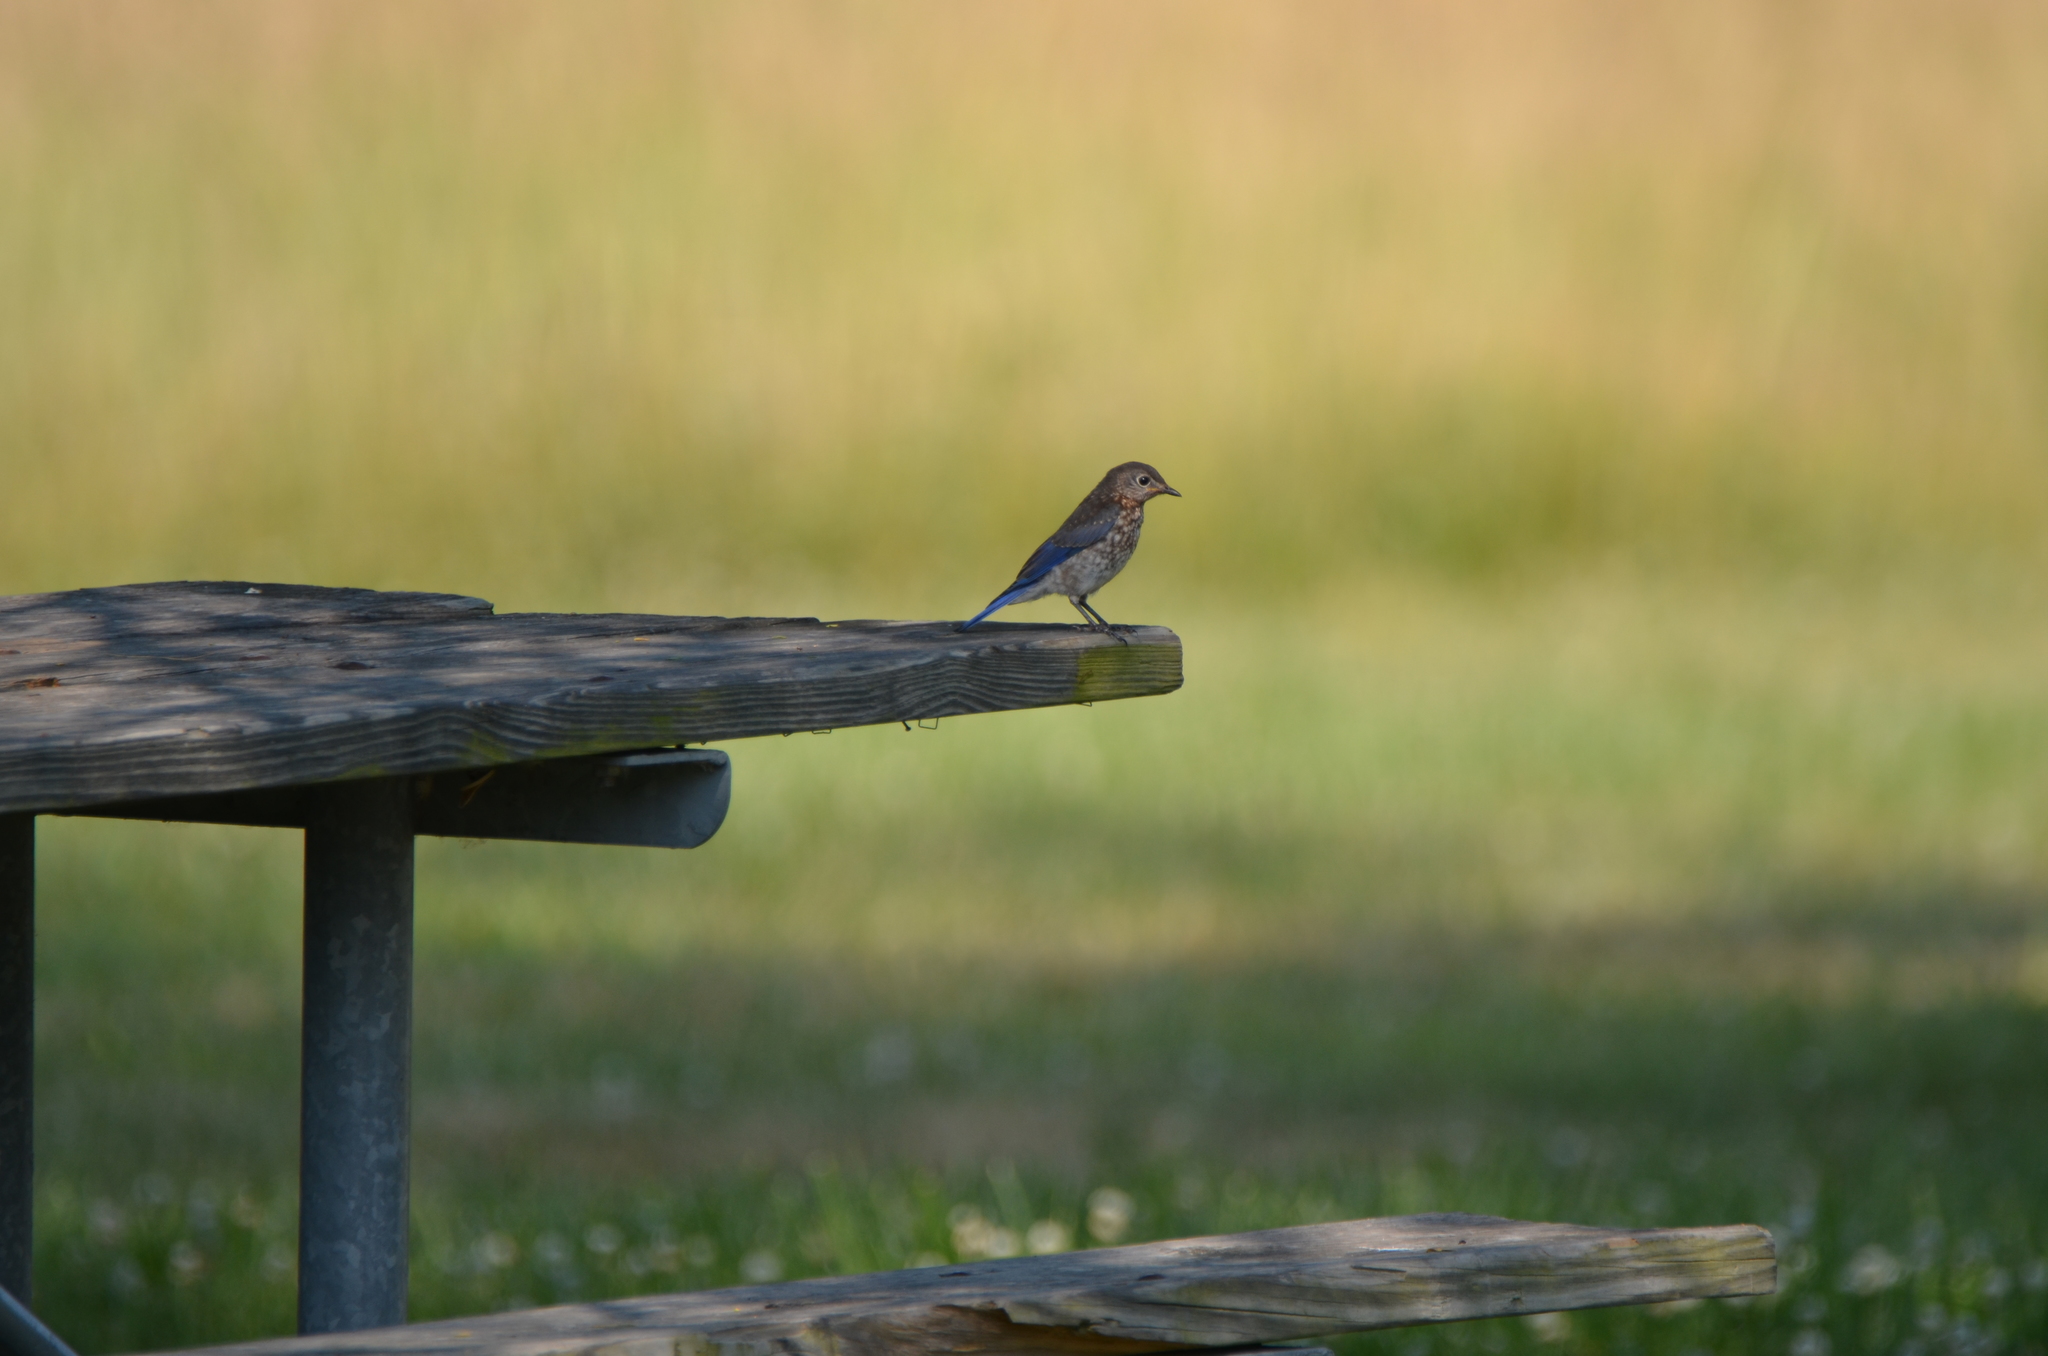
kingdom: Animalia
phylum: Chordata
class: Aves
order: Passeriformes
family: Turdidae
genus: Sialia
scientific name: Sialia sialis
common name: Eastern bluebird
